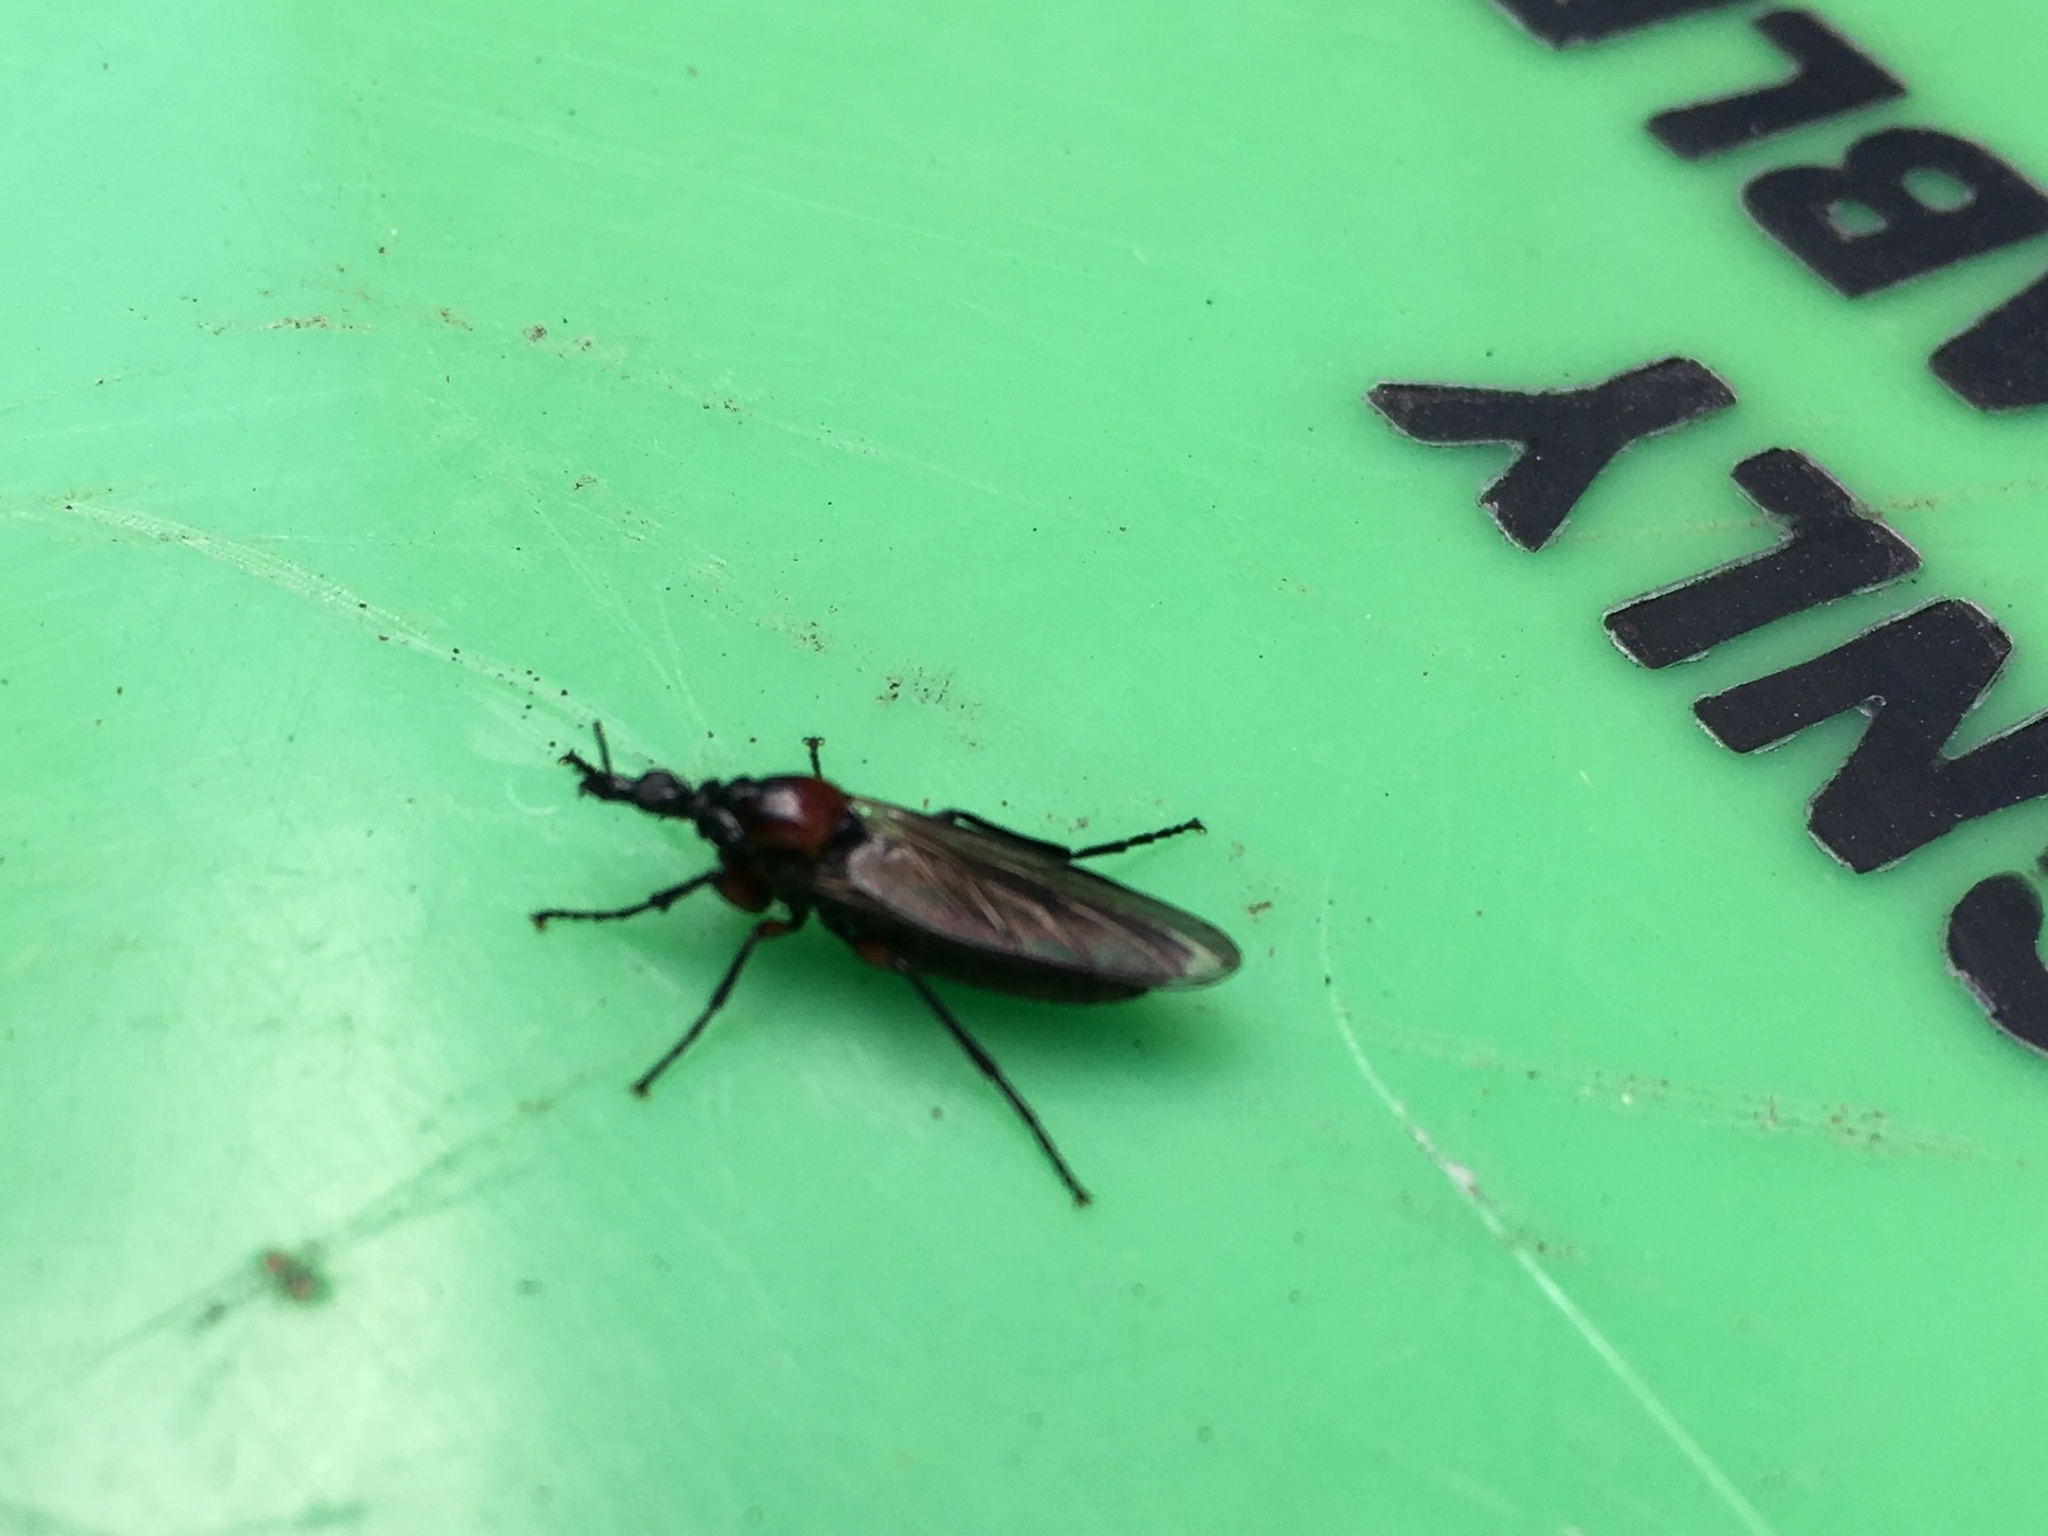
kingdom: Animalia
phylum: Arthropoda
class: Insecta
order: Diptera
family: Bibionidae
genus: Dilophus
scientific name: Dilophus nigrostigma
